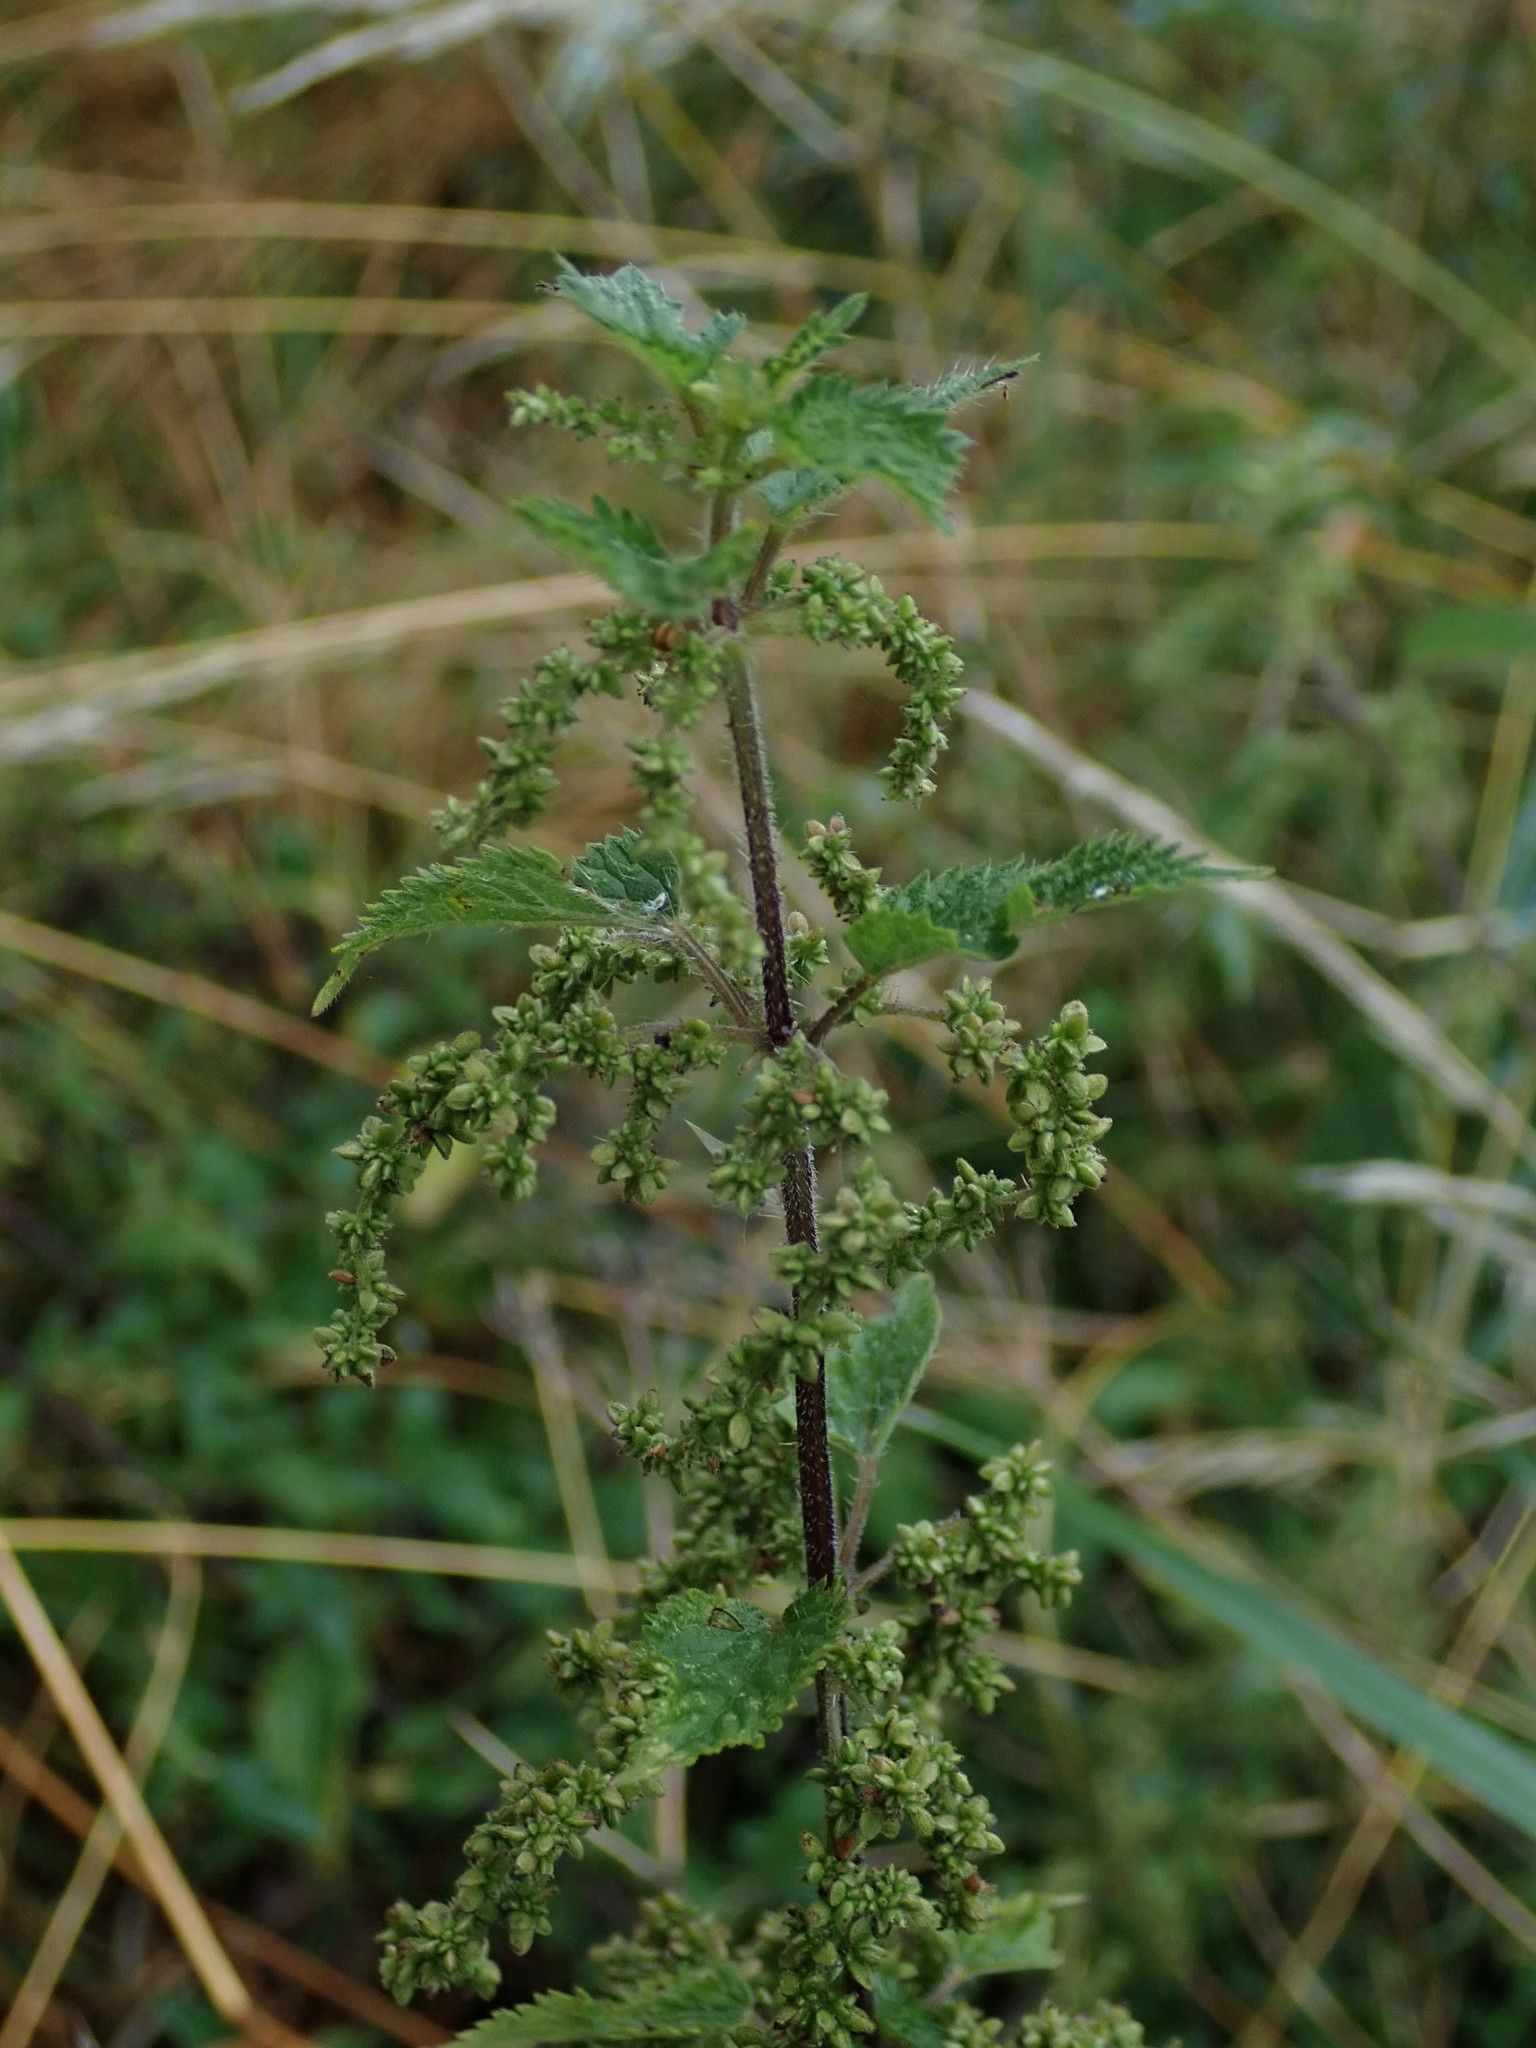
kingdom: Plantae
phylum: Tracheophyta
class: Magnoliopsida
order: Rosales
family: Urticaceae
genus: Urtica
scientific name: Urtica dioica
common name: Common nettle
